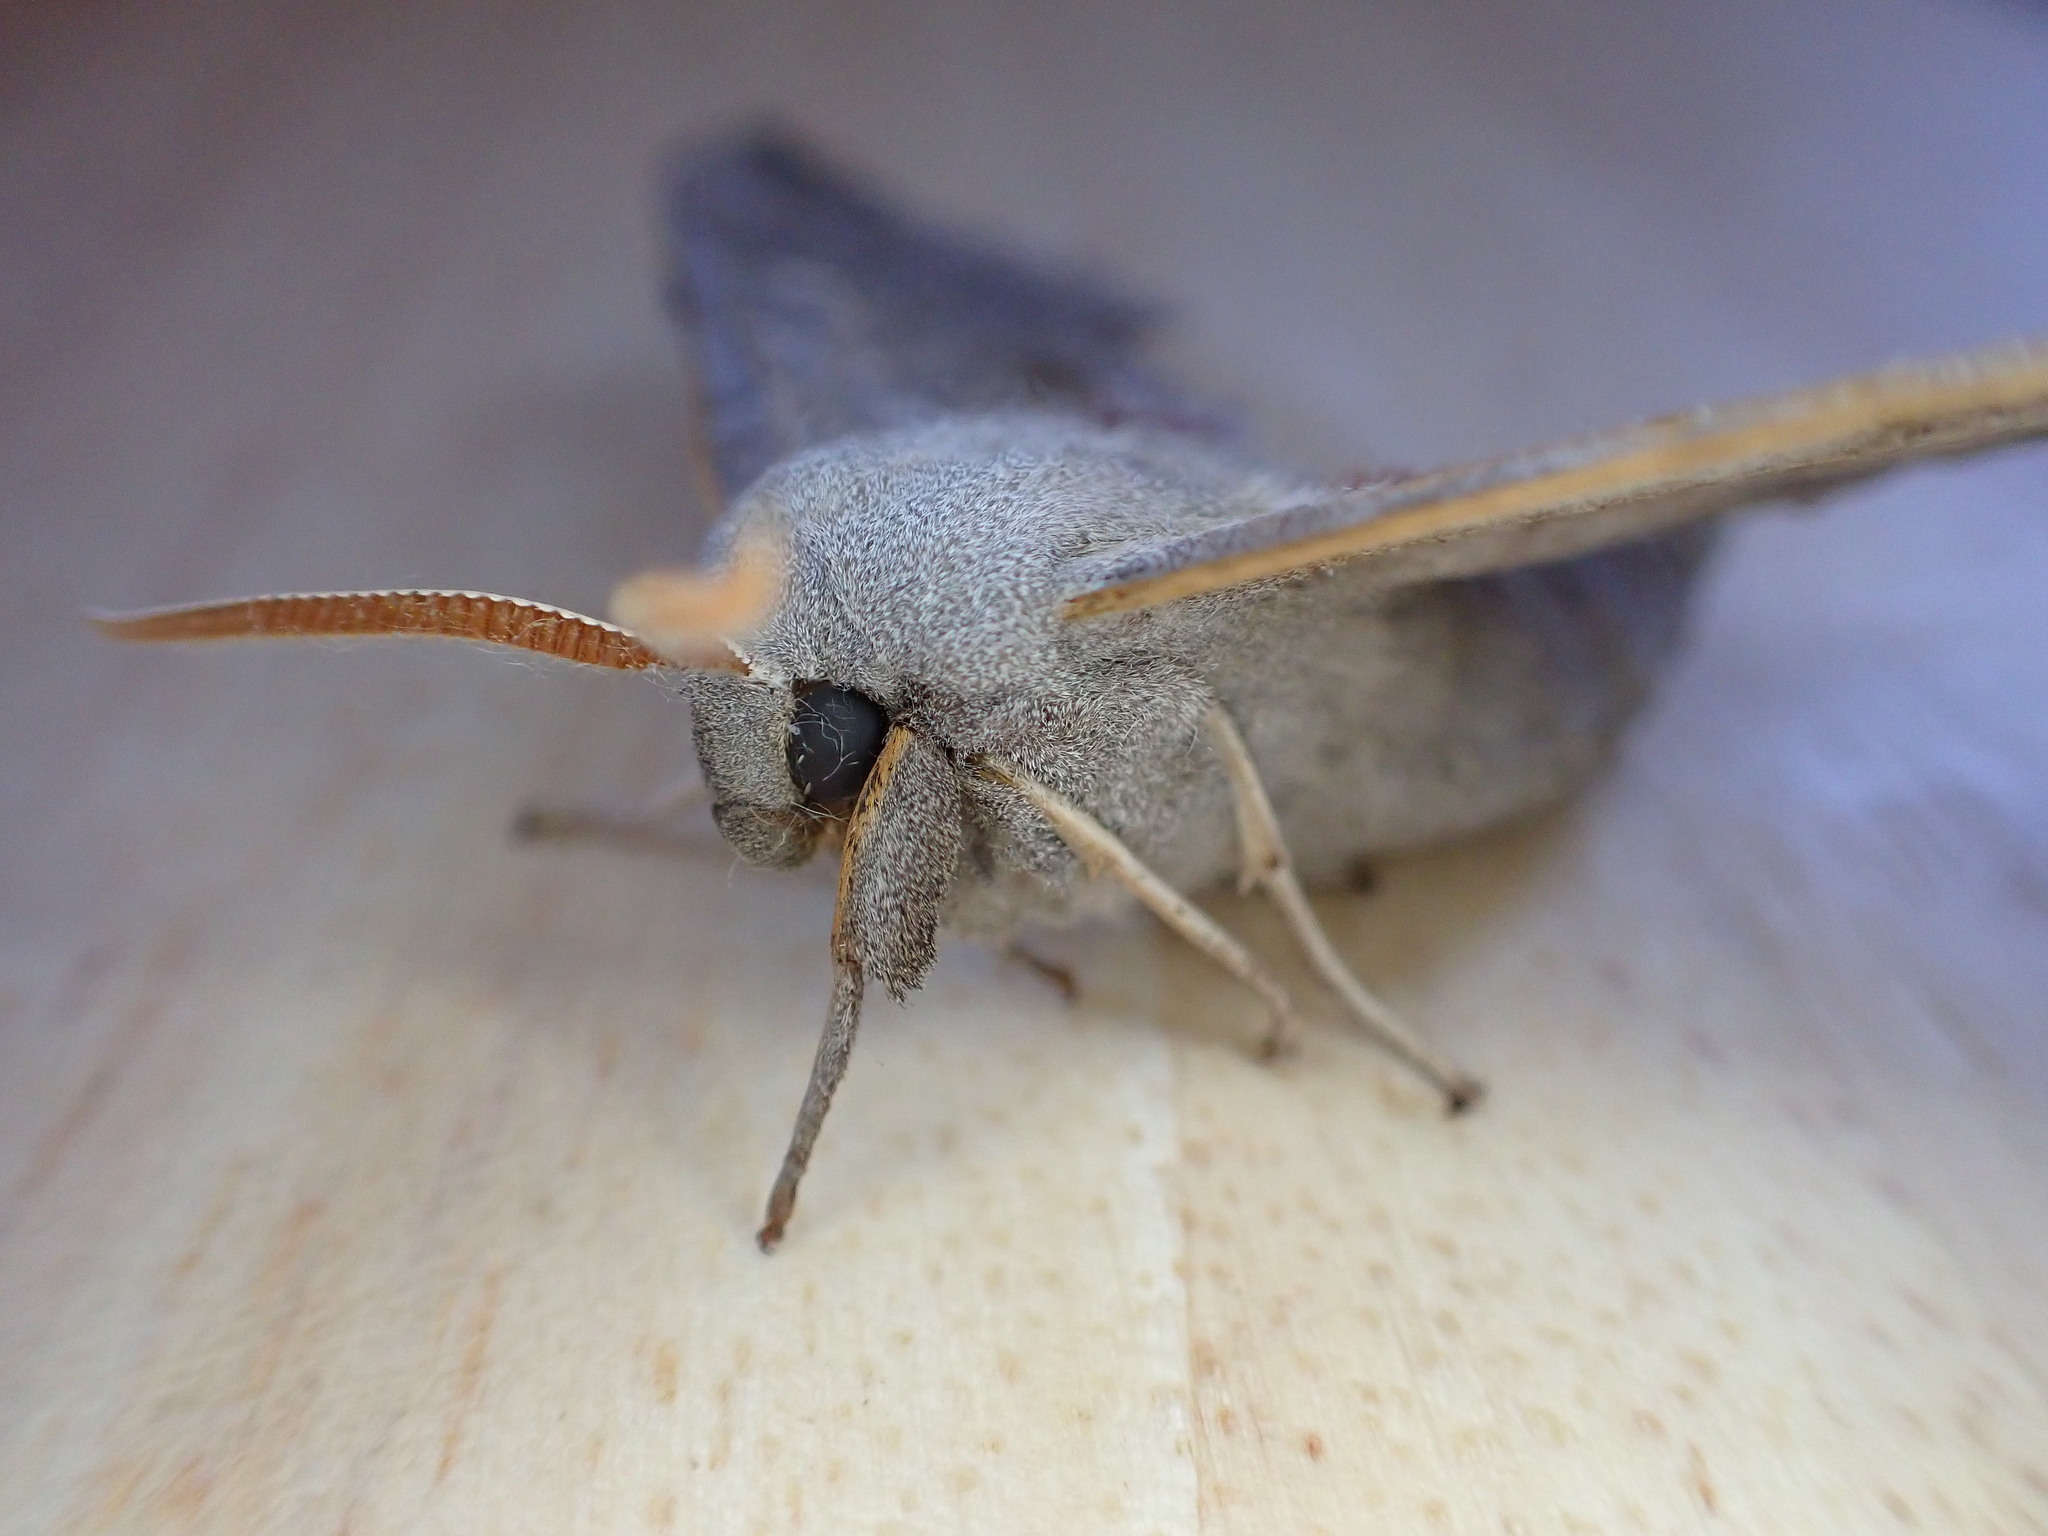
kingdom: Animalia
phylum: Arthropoda
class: Insecta
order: Lepidoptera
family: Sphingidae
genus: Laothoe
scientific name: Laothoe populi
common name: Poplar hawk-moth
